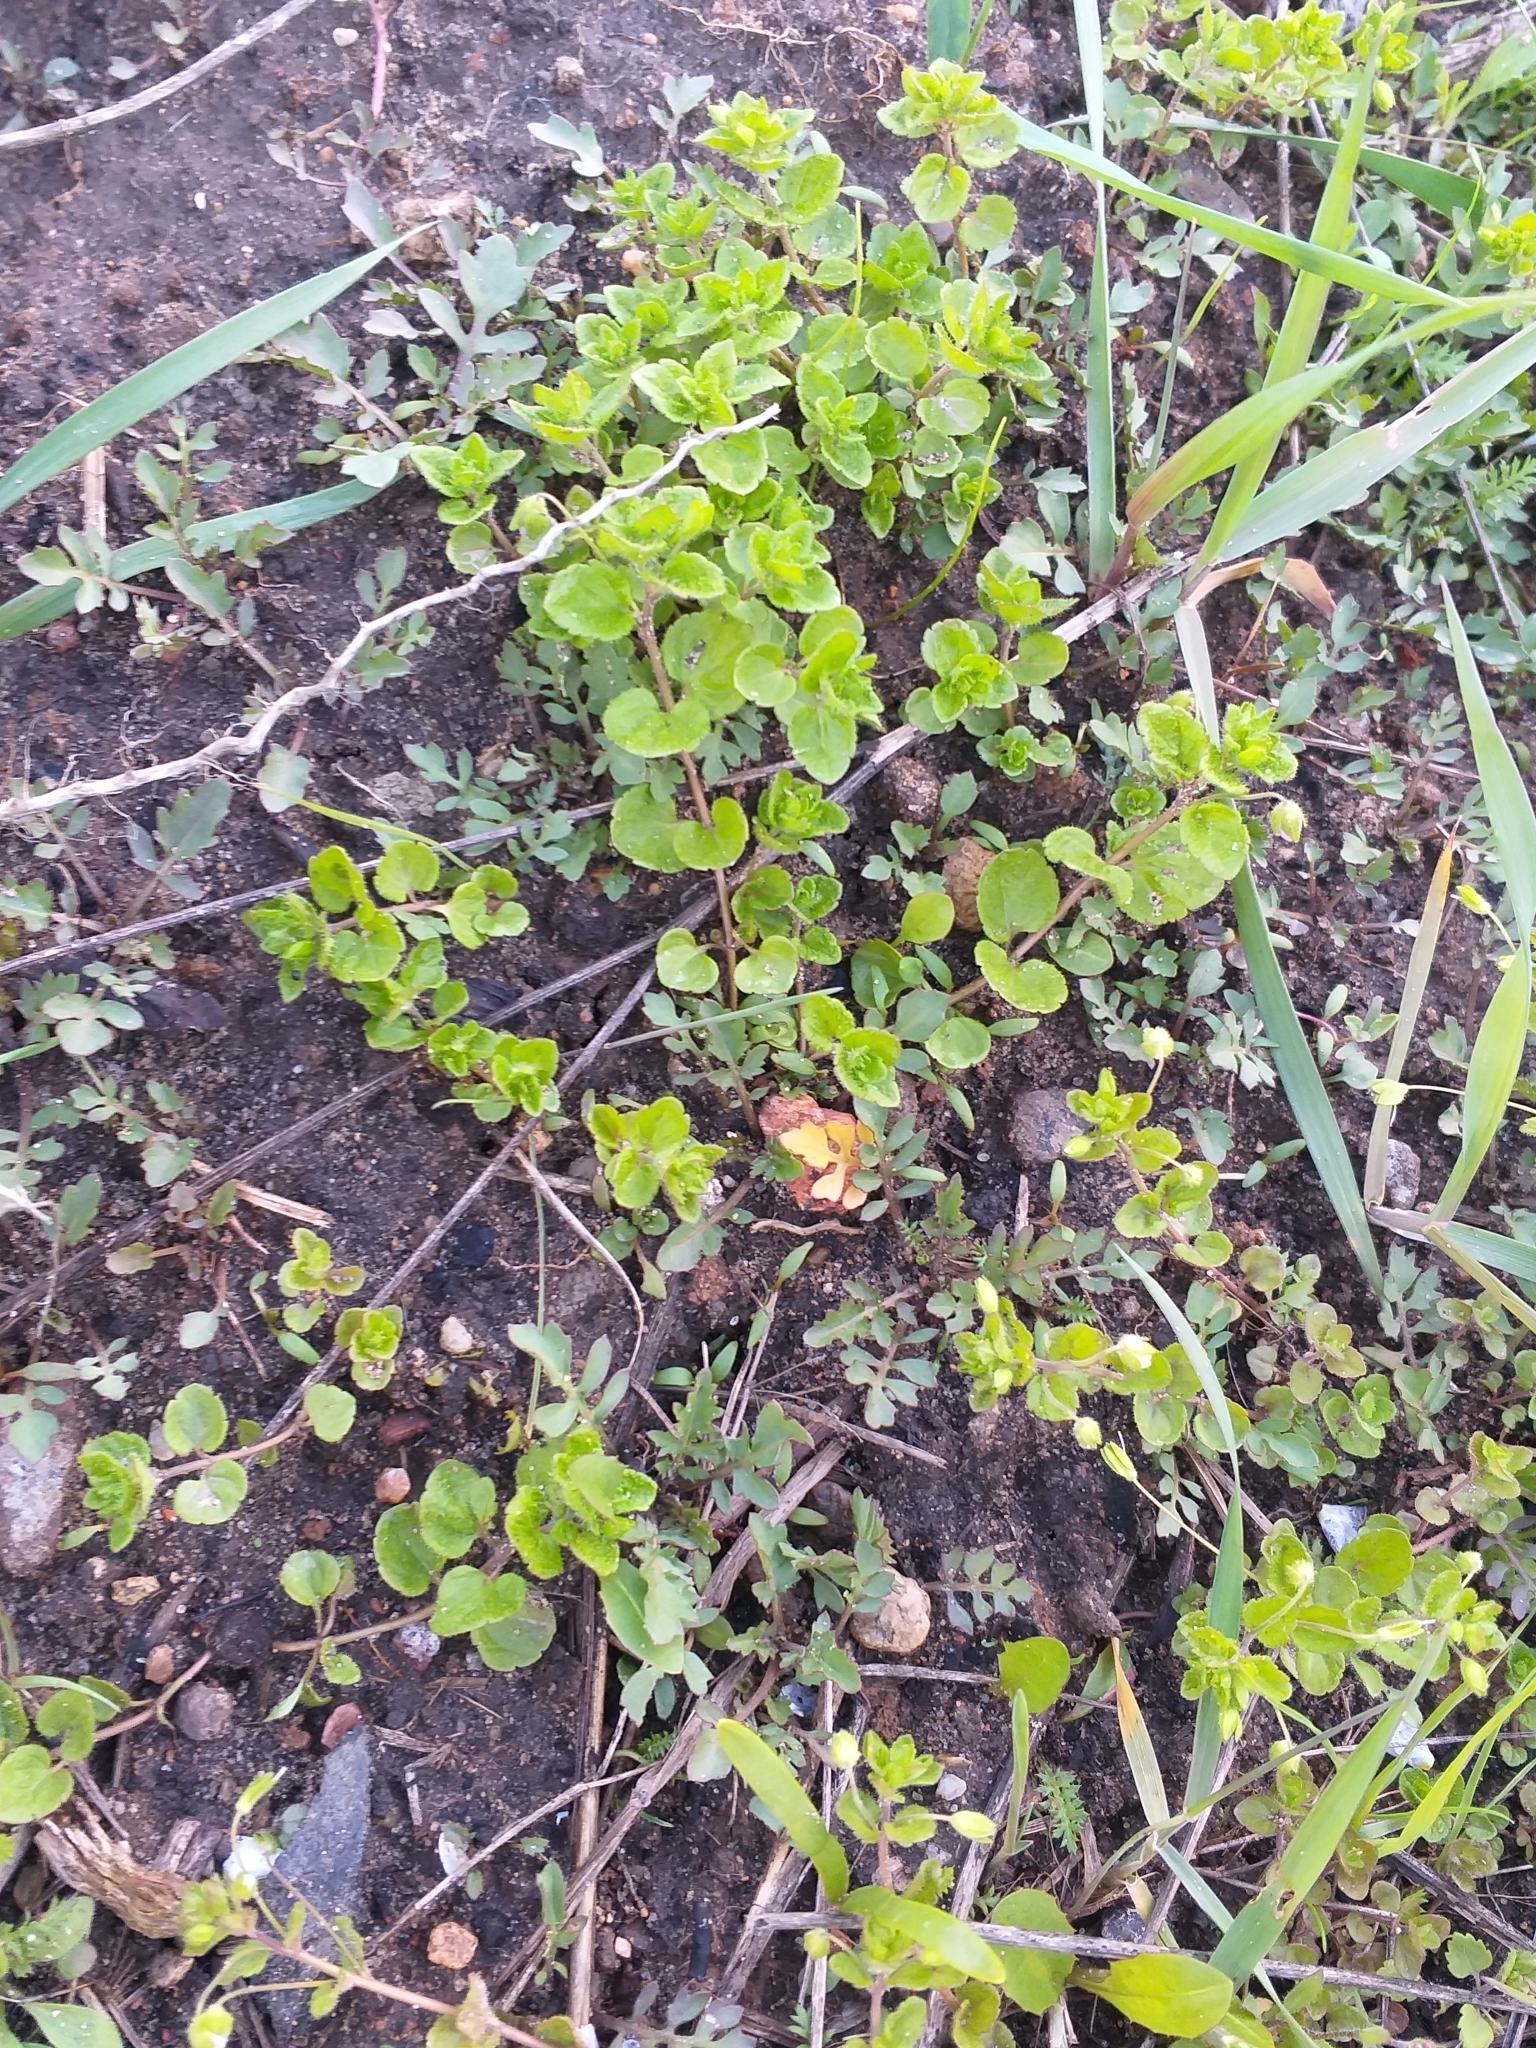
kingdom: Plantae
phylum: Tracheophyta
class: Magnoliopsida
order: Lamiales
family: Plantaginaceae
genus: Veronica
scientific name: Veronica filiformis
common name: Slender speedwell
